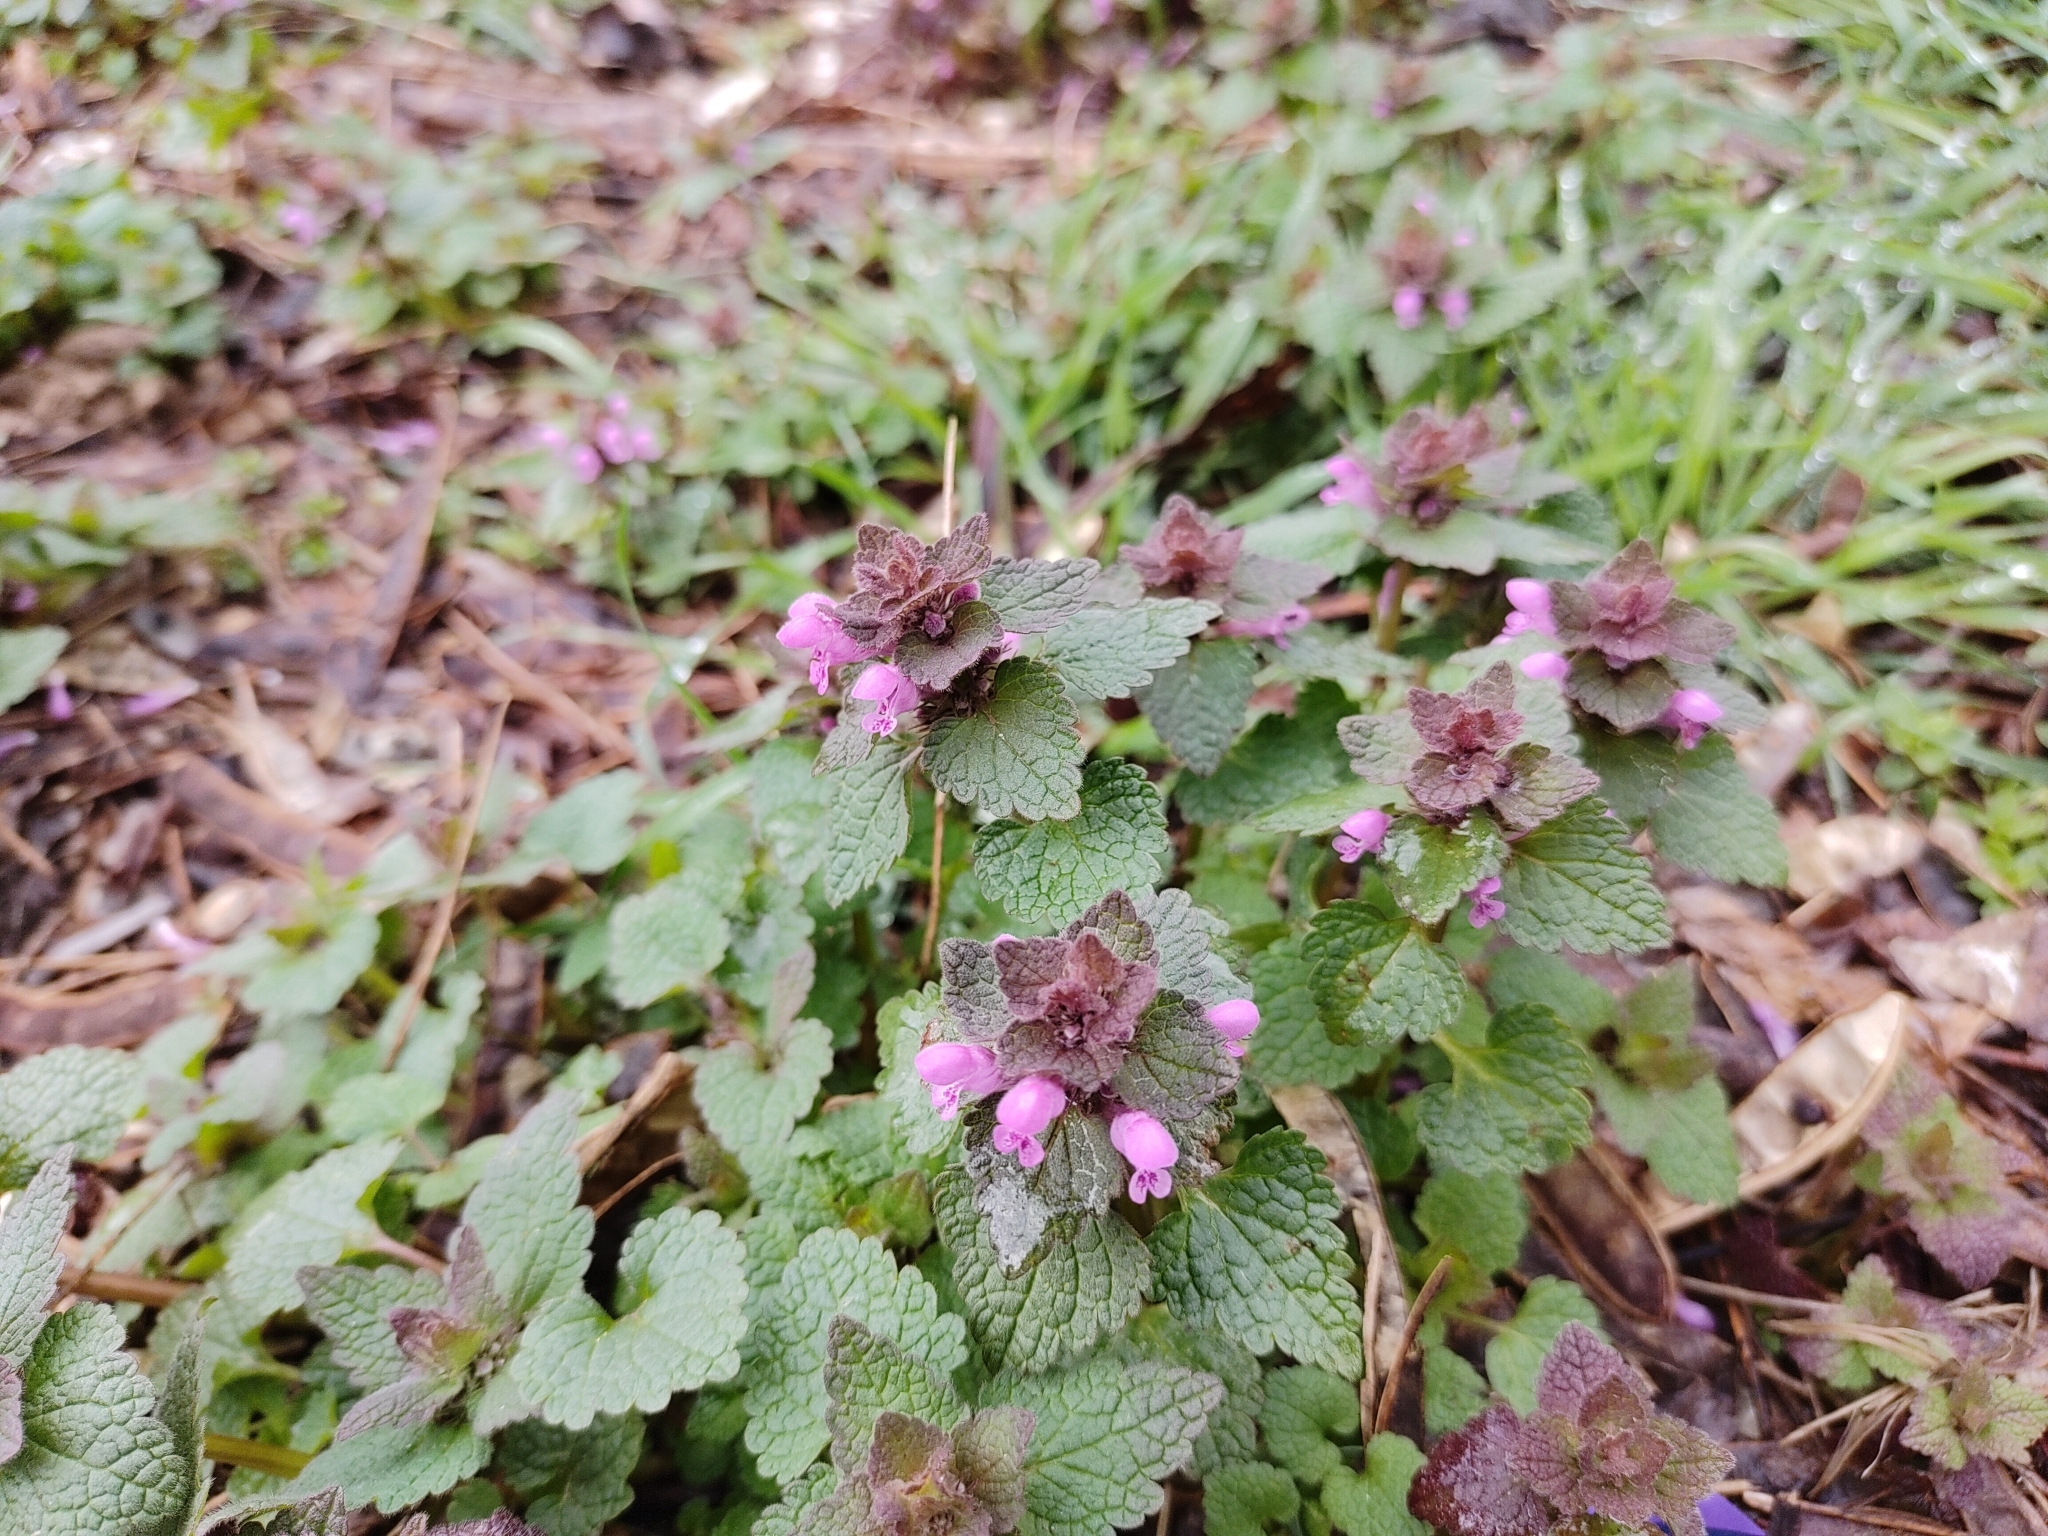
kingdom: Plantae
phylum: Tracheophyta
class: Magnoliopsida
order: Lamiales
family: Lamiaceae
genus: Lamium
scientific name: Lamium purpureum
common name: Red dead-nettle
